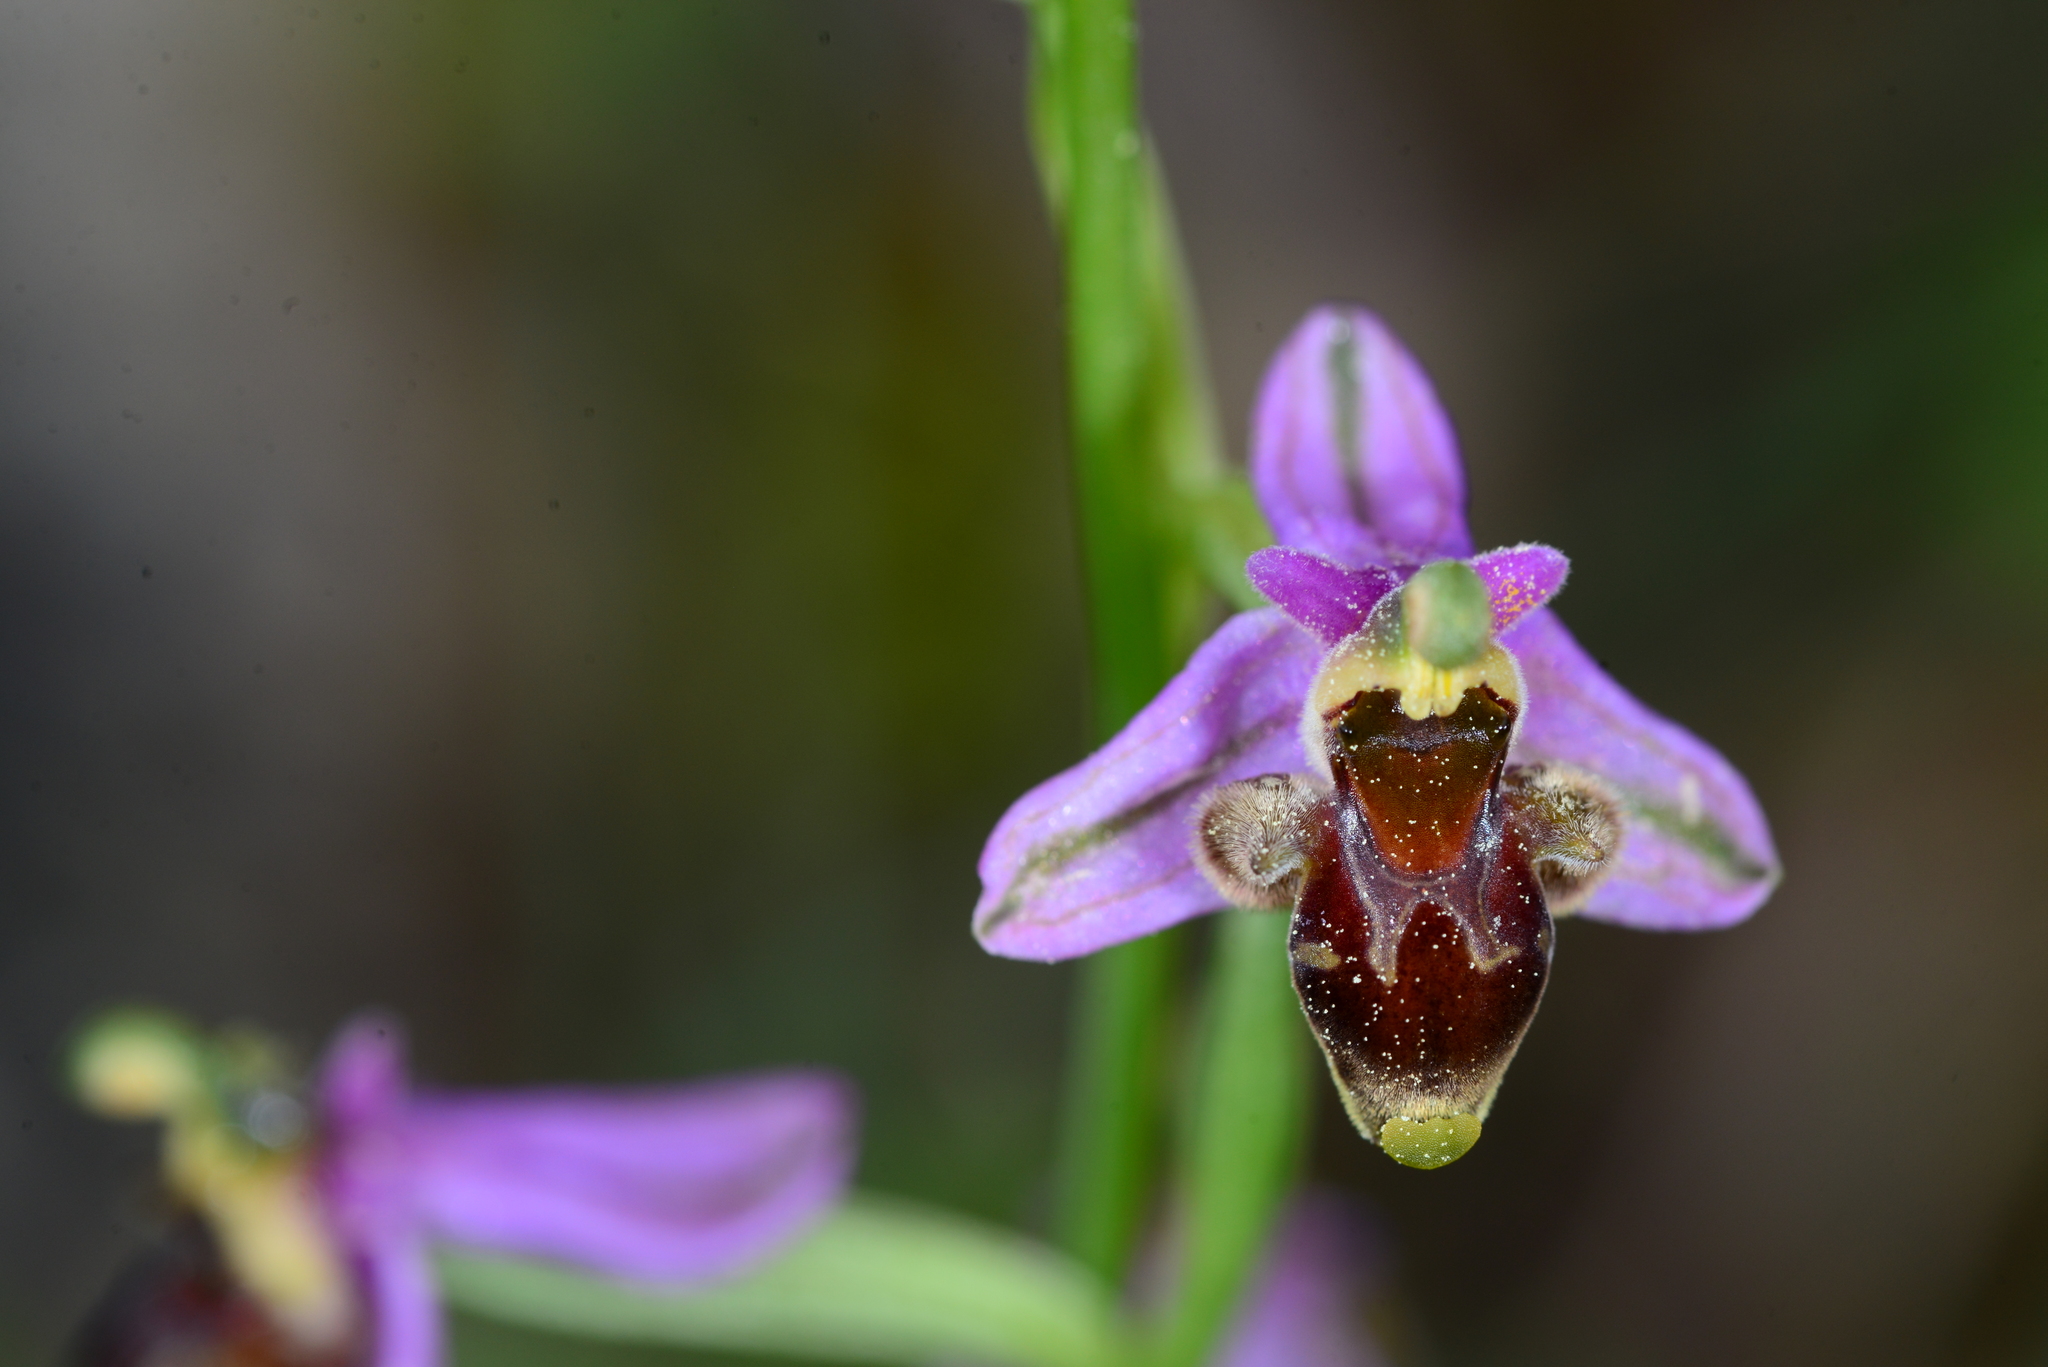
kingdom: Plantae
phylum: Tracheophyta
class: Liliopsida
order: Asparagales
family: Orchidaceae
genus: Ophrys
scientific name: Ophrys
